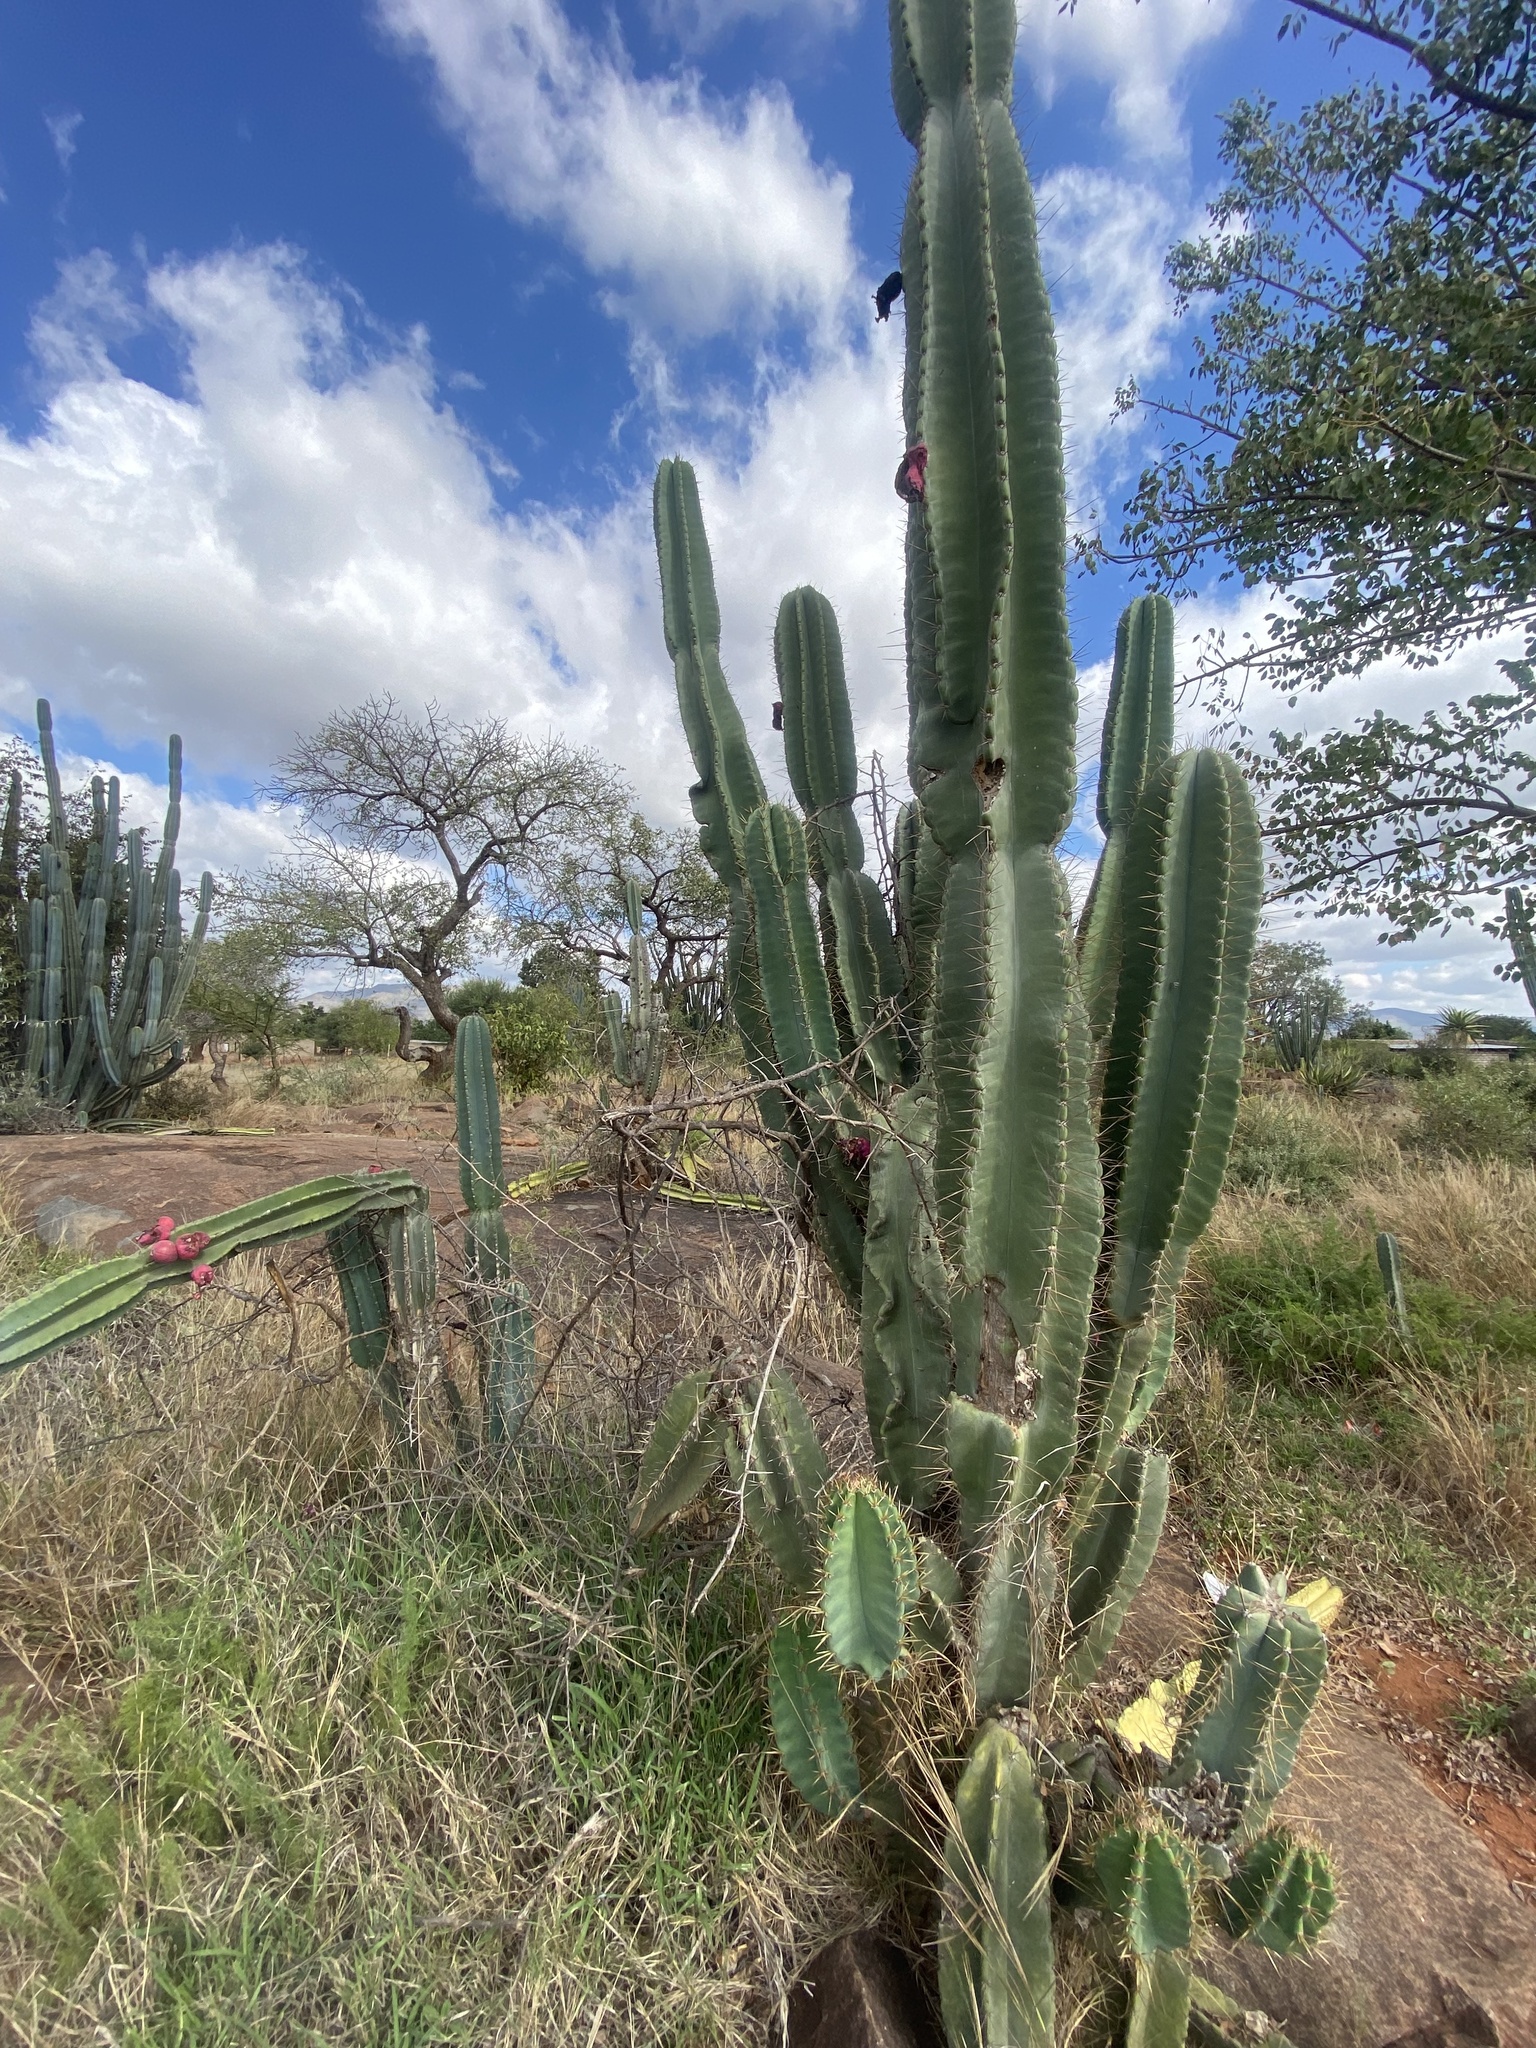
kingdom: Plantae
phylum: Tracheophyta
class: Magnoliopsida
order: Caryophyllales
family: Cactaceae
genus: Cereus
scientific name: Cereus jamacaru
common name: Queen-of-the-night
